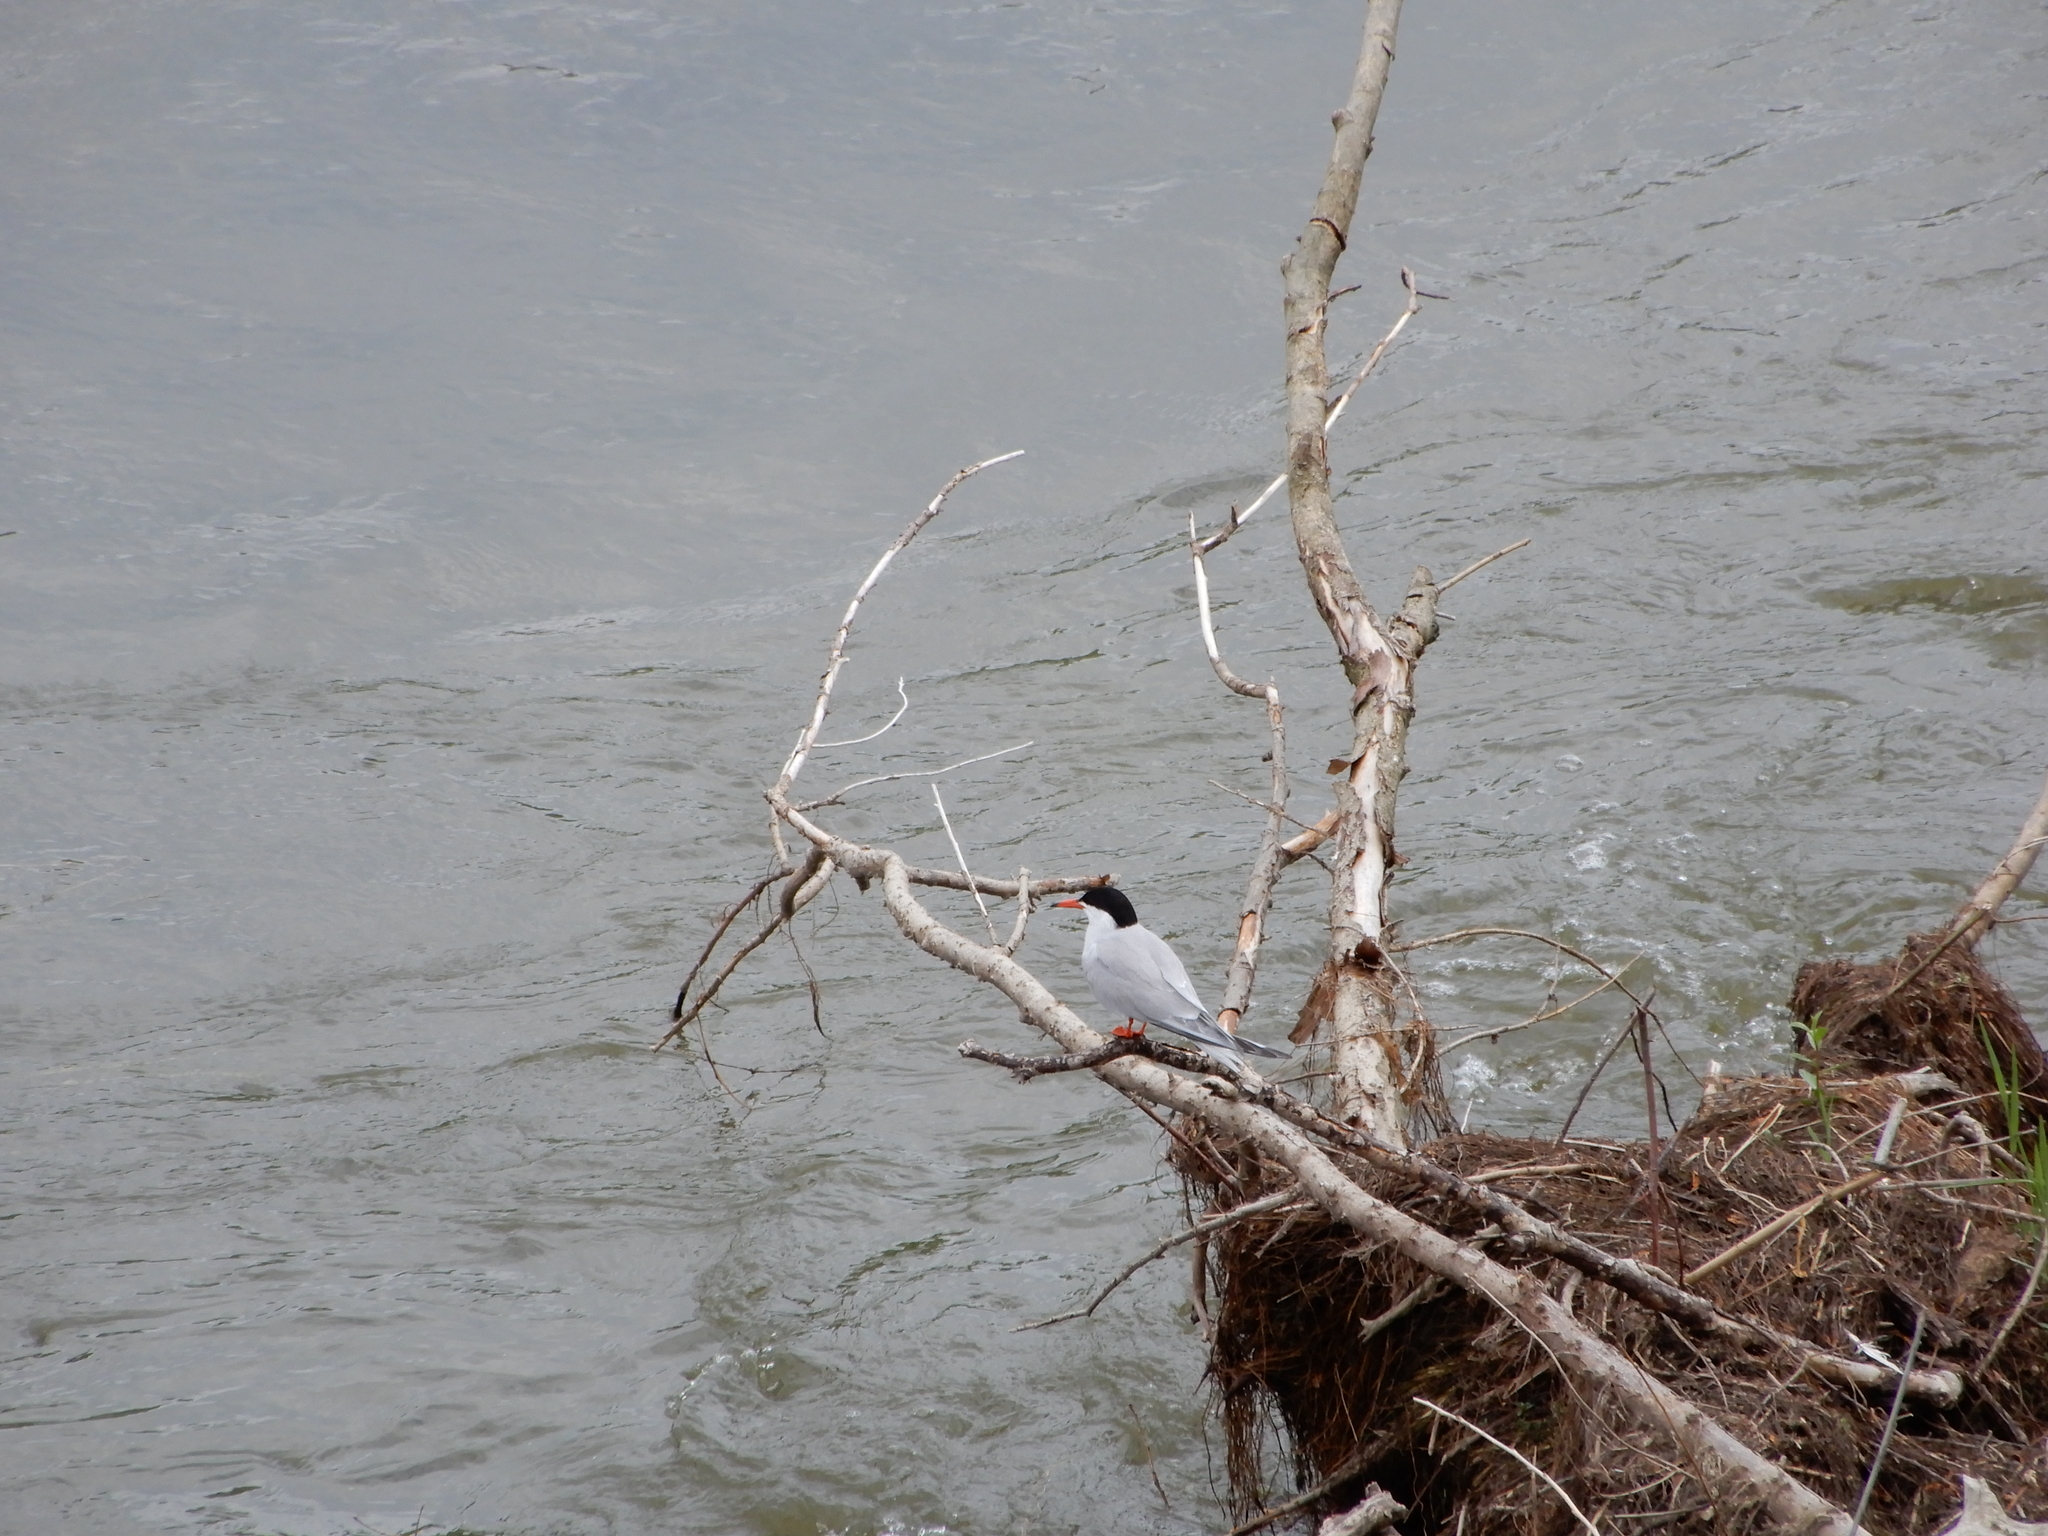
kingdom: Animalia
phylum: Chordata
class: Aves
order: Charadriiformes
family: Laridae
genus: Sterna
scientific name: Sterna hirundo
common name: Common tern
